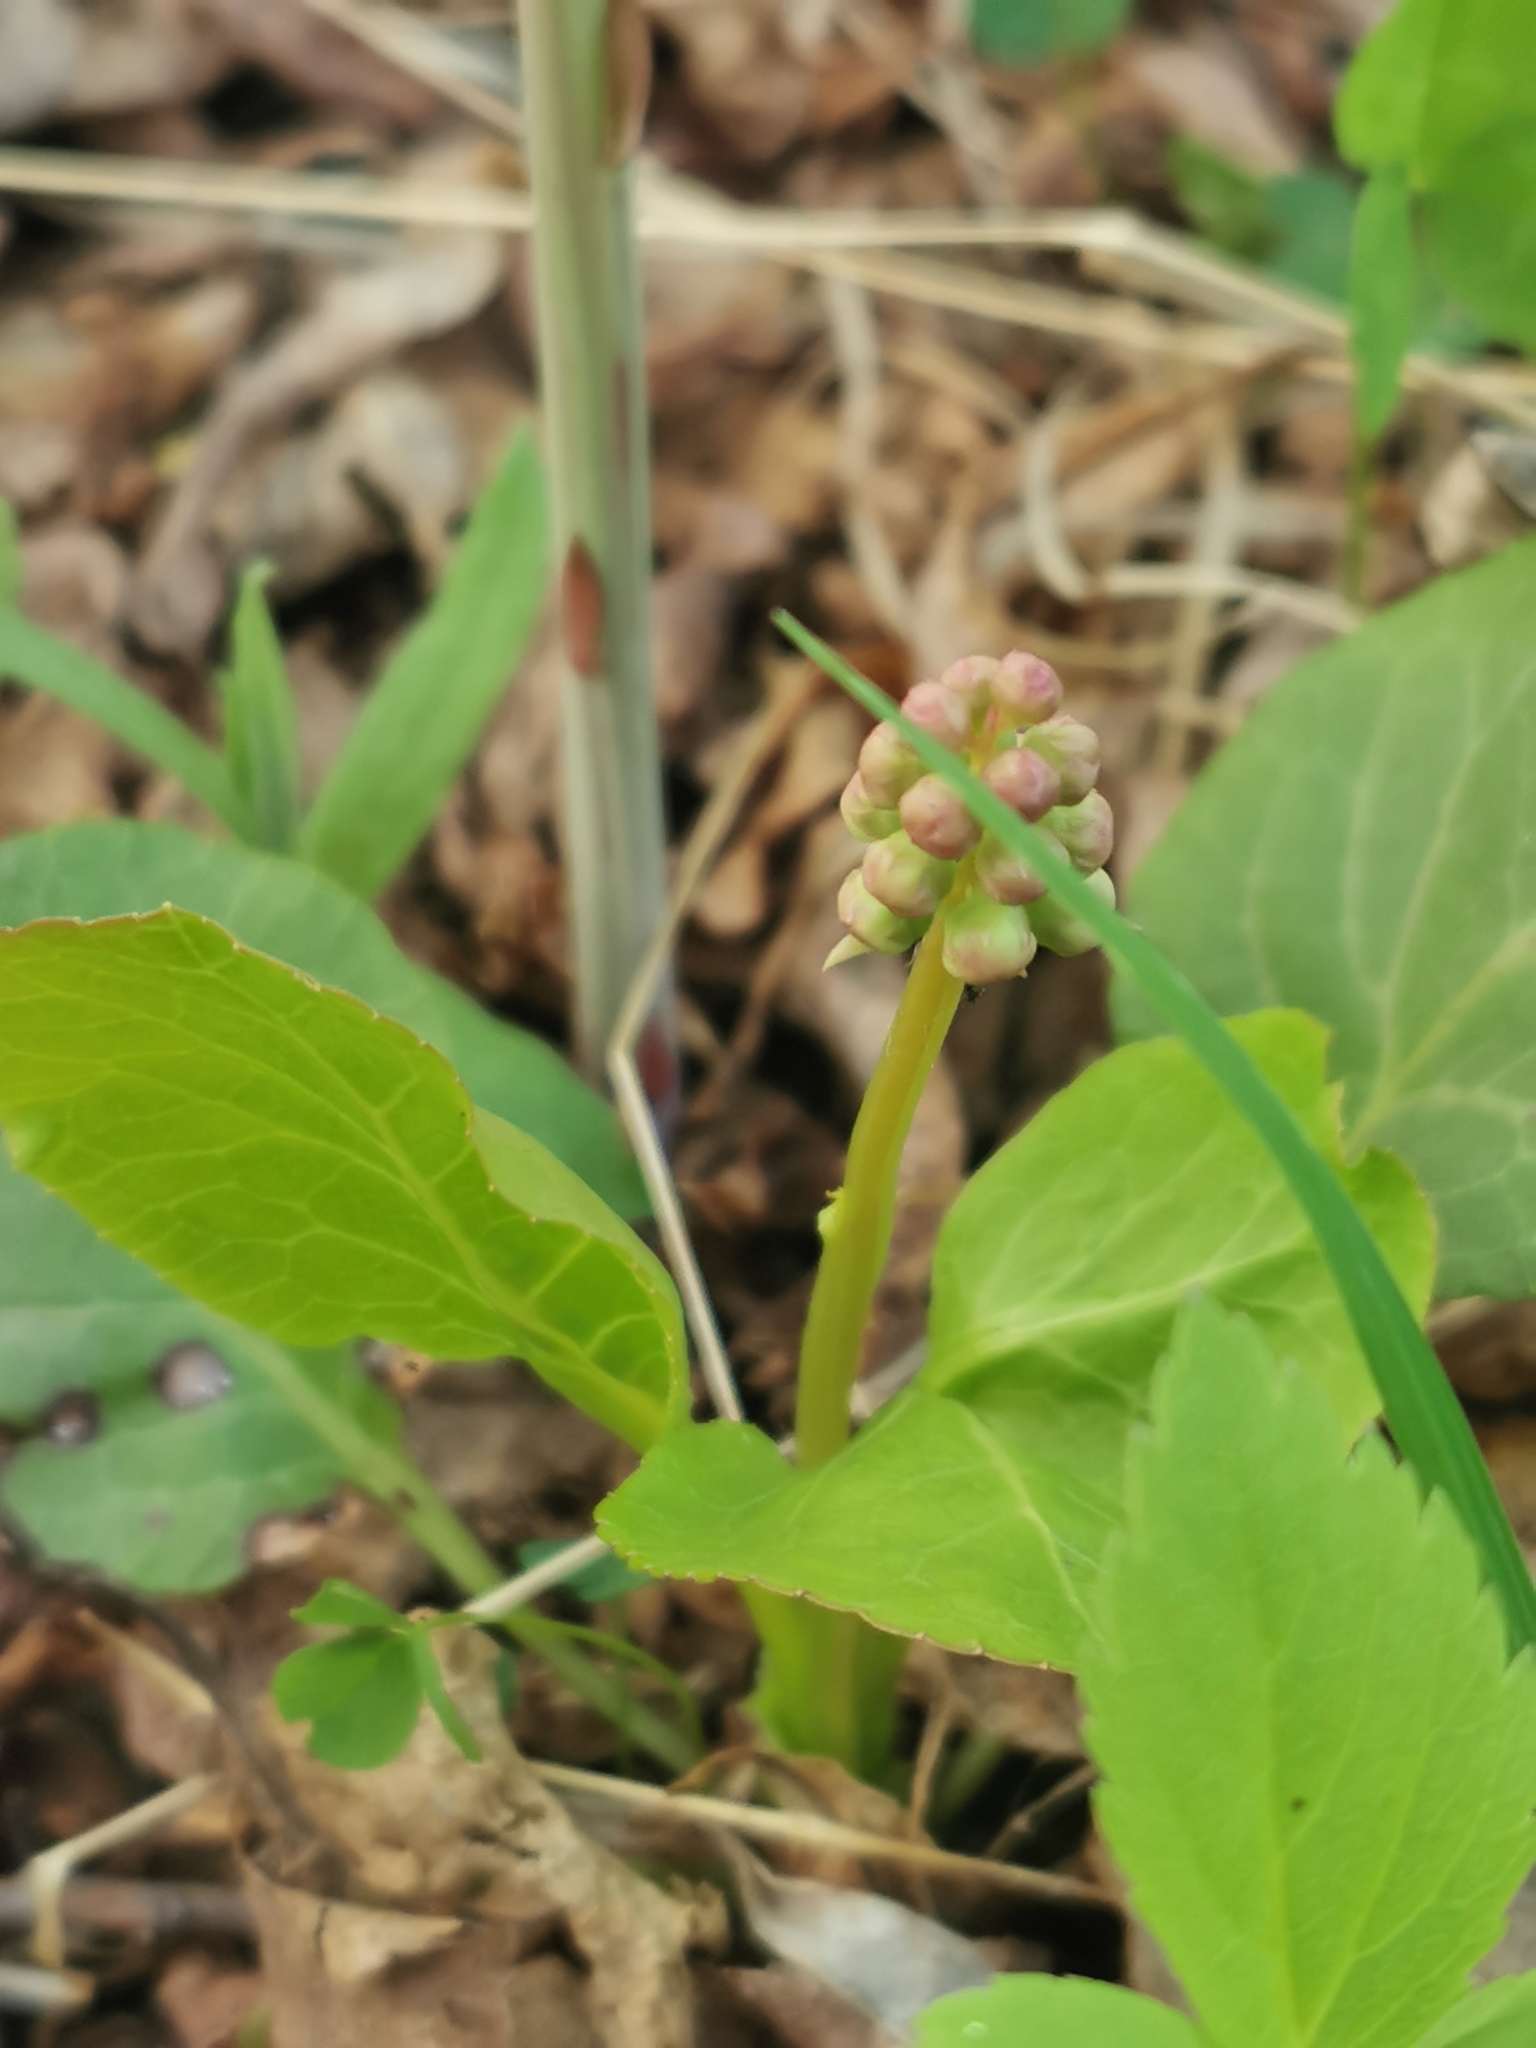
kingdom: Plantae
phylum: Tracheophyta
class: Magnoliopsida
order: Ericales
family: Ericaceae
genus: Pyrola
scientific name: Pyrola minor
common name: Common wintergreen
